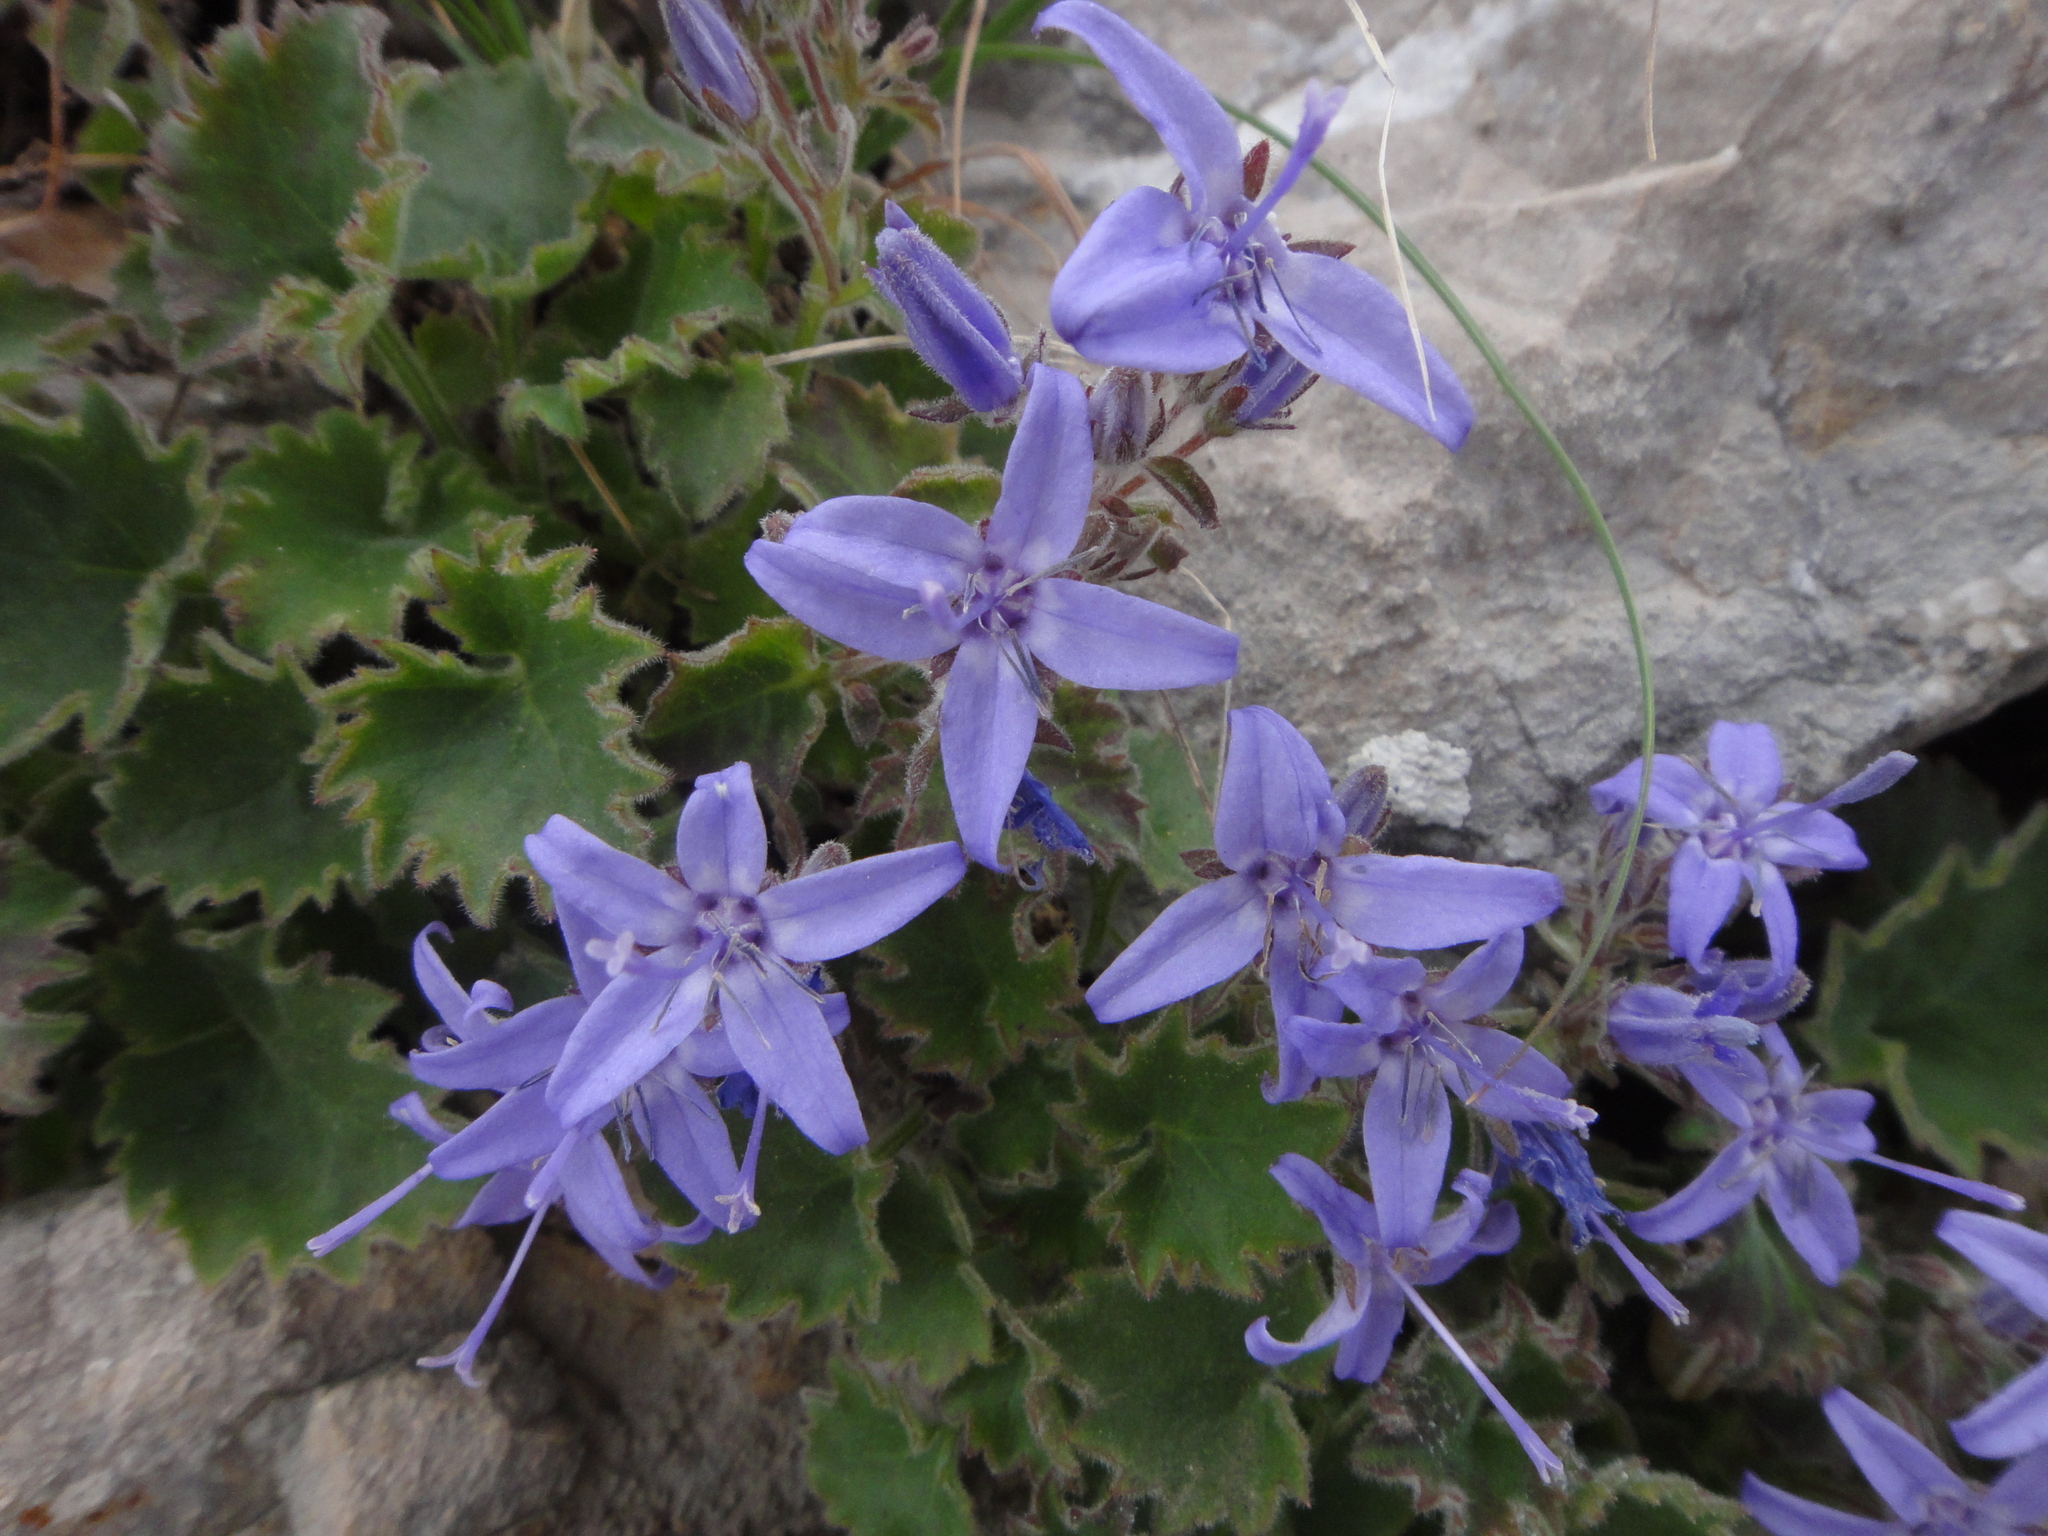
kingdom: Plantae
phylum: Tracheophyta
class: Magnoliopsida
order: Asterales
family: Campanulaceae
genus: Campanula
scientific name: Campanula fenestrellata
